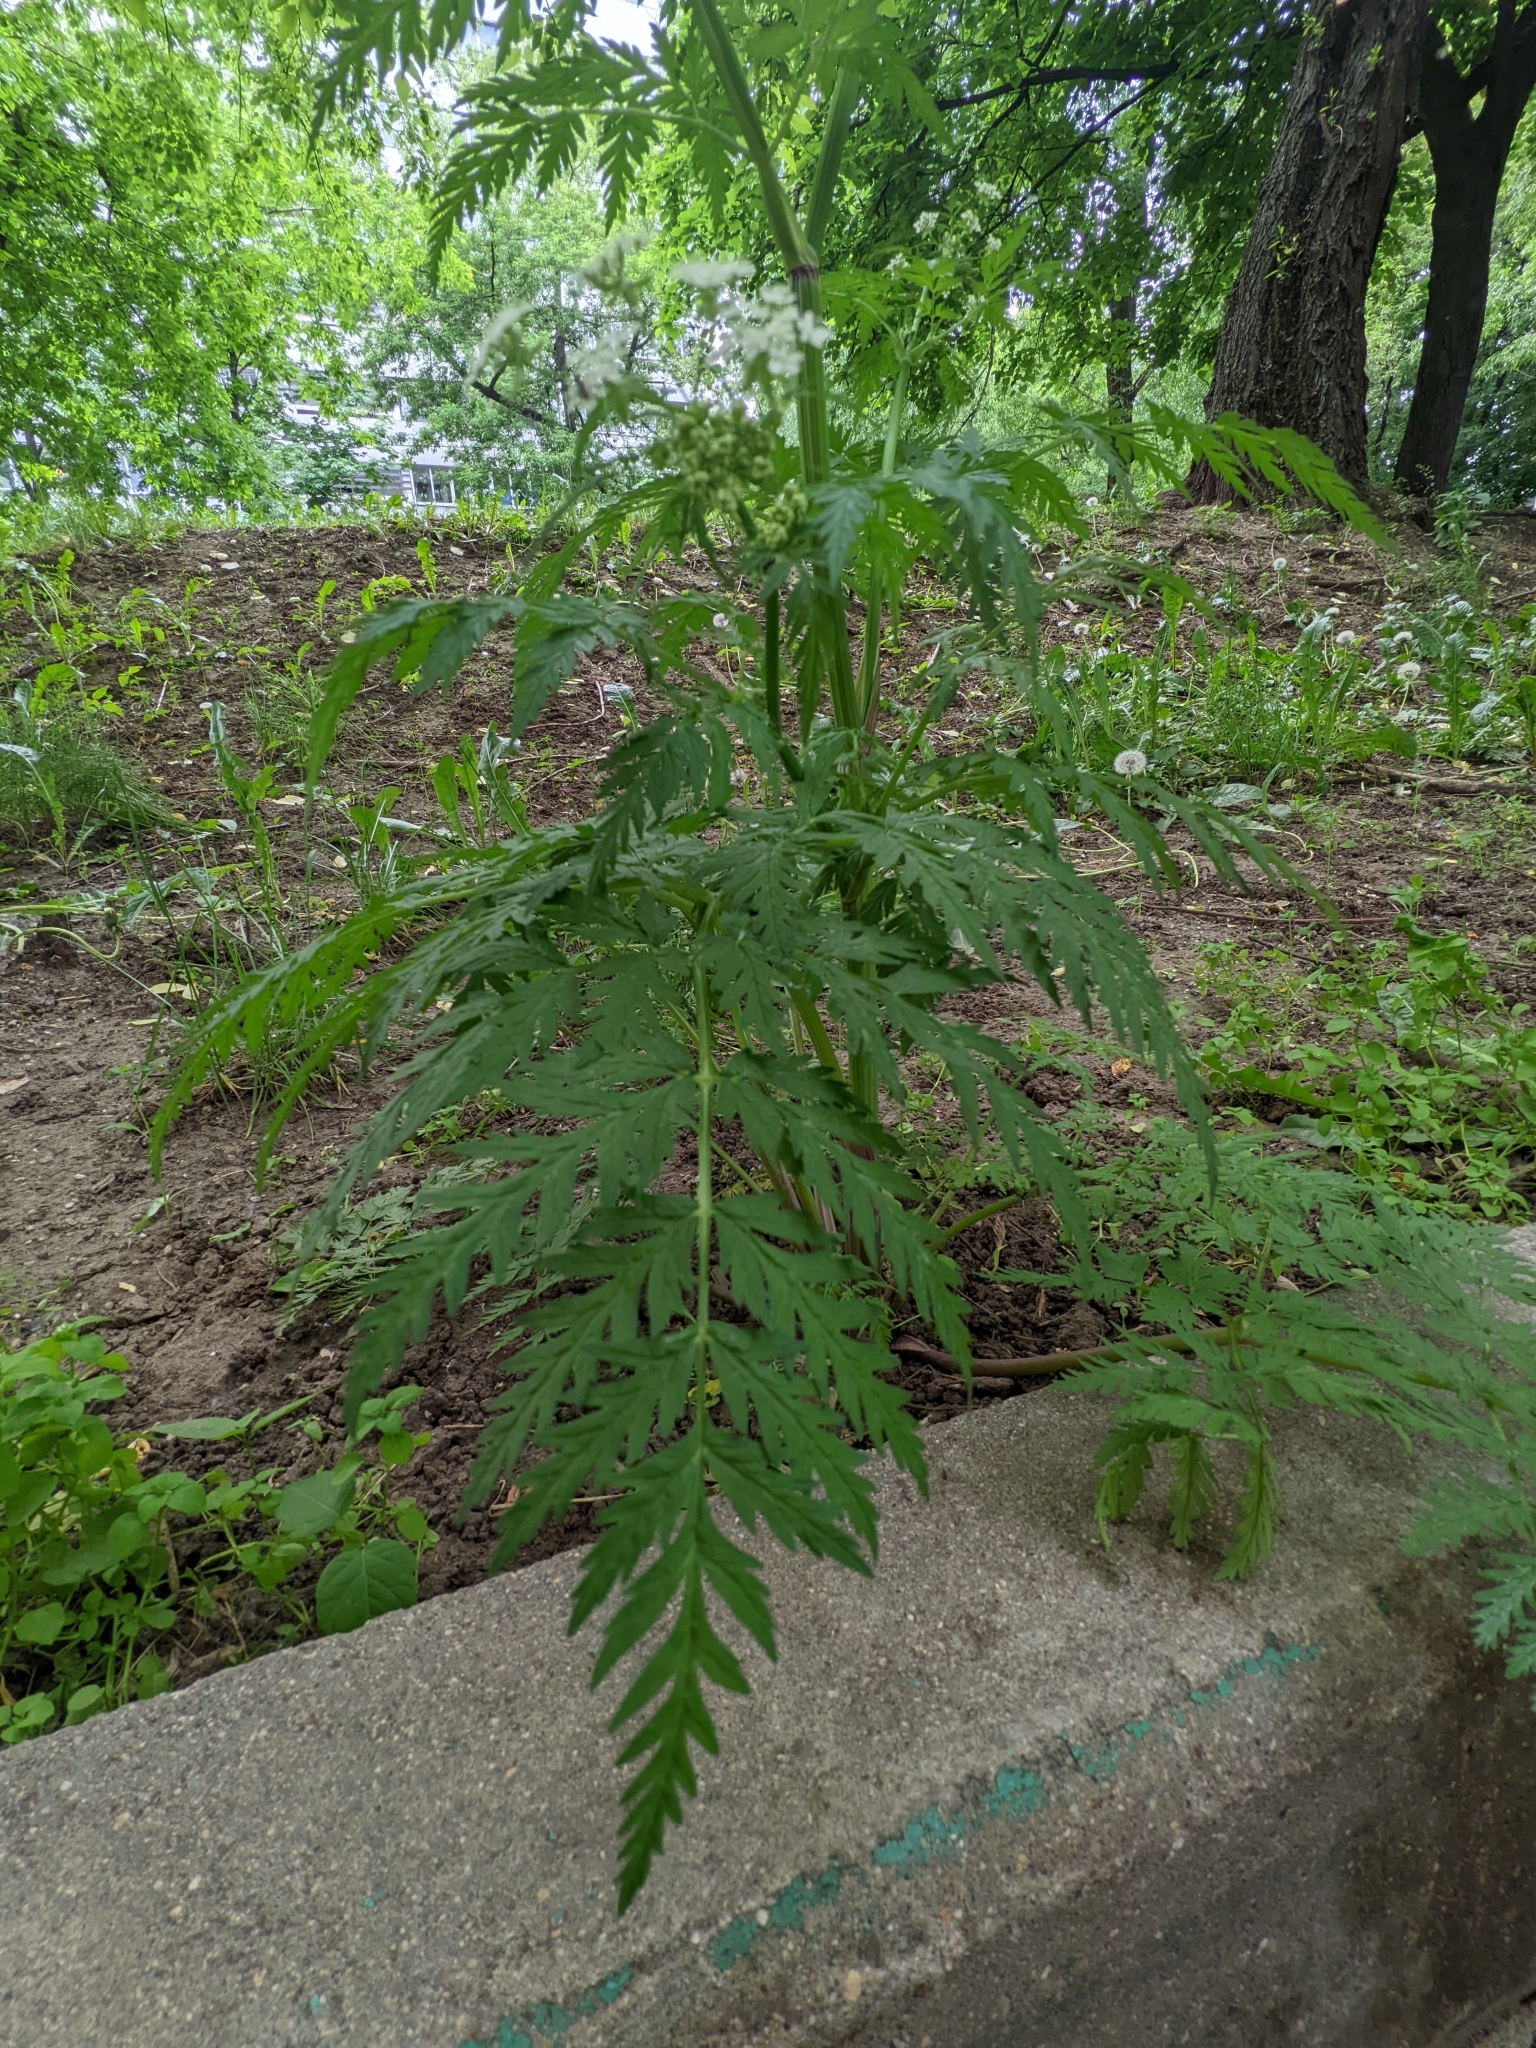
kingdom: Plantae
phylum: Tracheophyta
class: Magnoliopsida
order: Apiales
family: Apiaceae
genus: Anthriscus
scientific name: Anthriscus sylvestris
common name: Cow parsley
